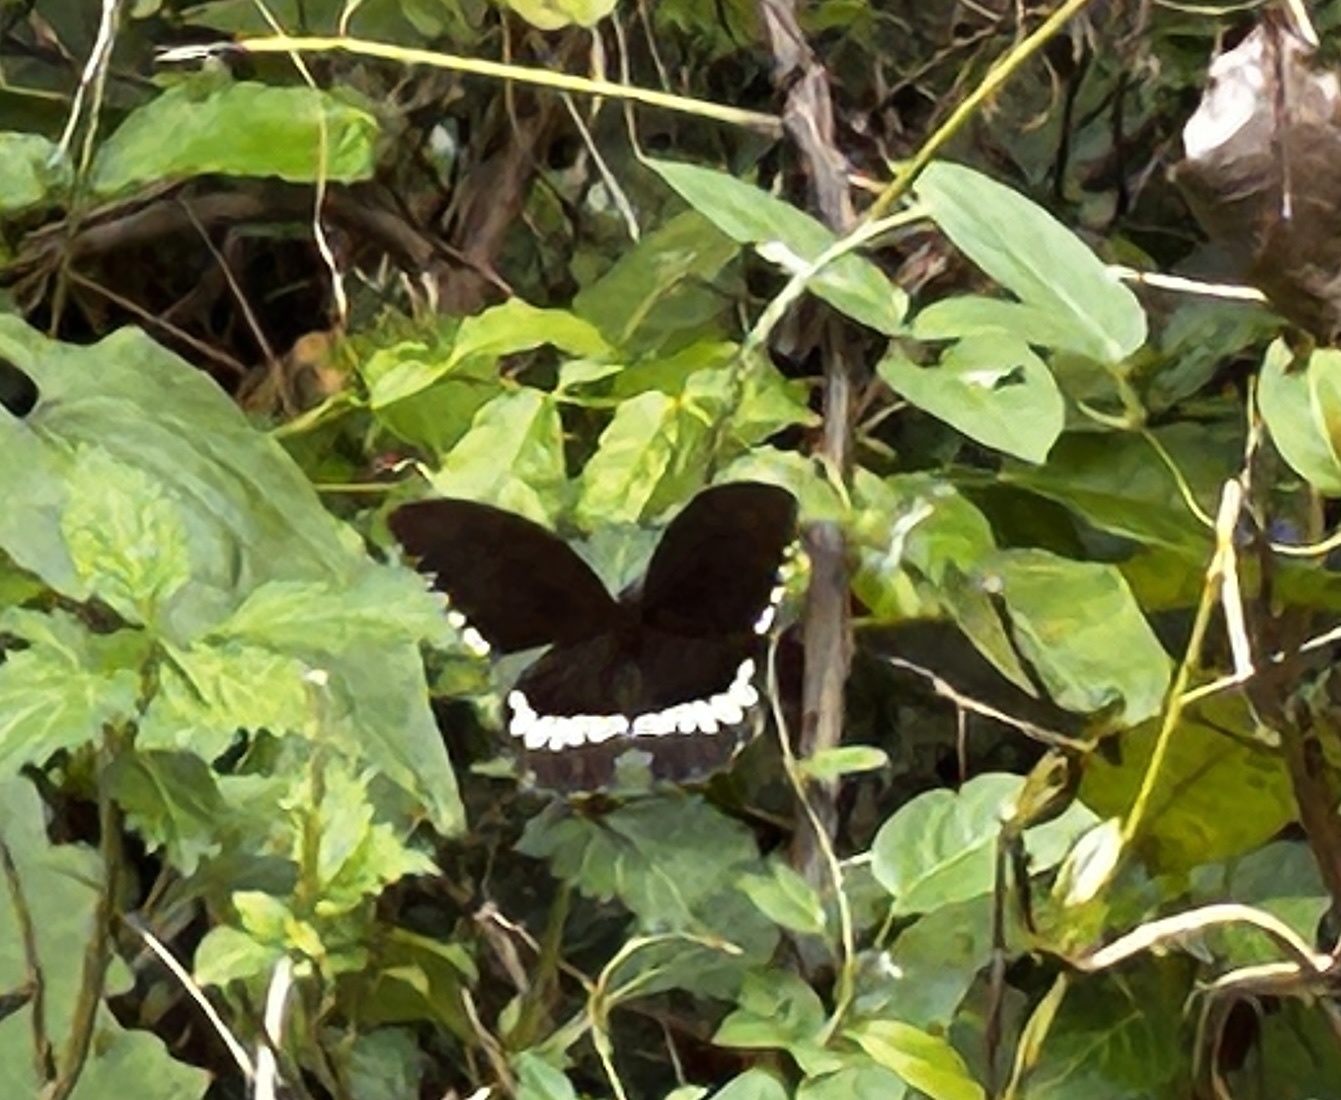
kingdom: Animalia
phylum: Arthropoda
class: Insecta
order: Lepidoptera
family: Papilionidae
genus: Papilio
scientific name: Papilio polytes
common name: Common mormon
